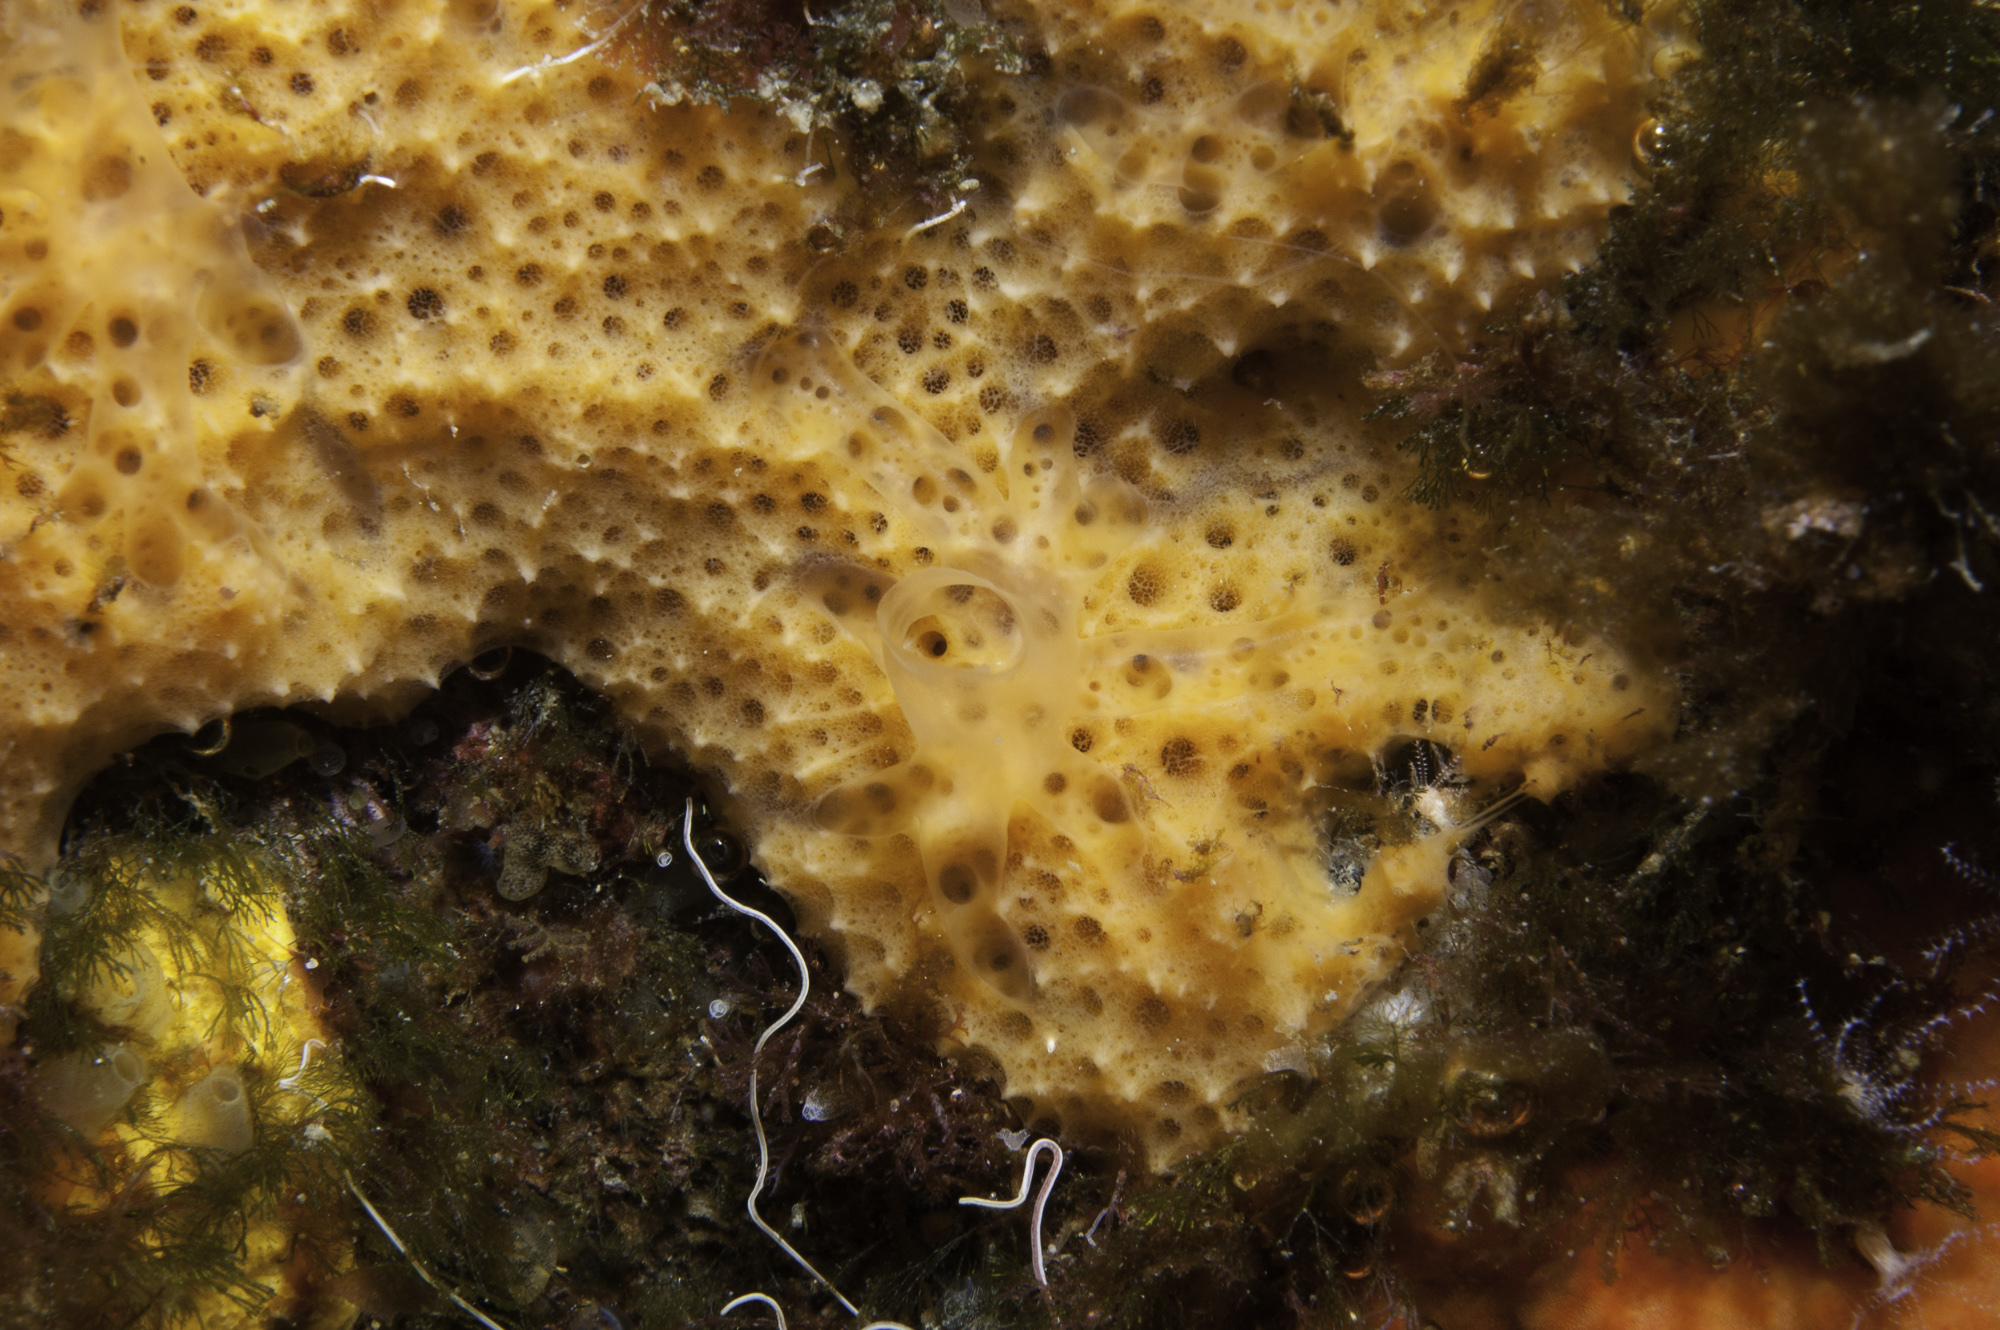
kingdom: Animalia
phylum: Porifera
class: Demospongiae
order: Scopalinida
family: Scopalinidae
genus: Scopalina
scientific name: Scopalina lophyropoda
